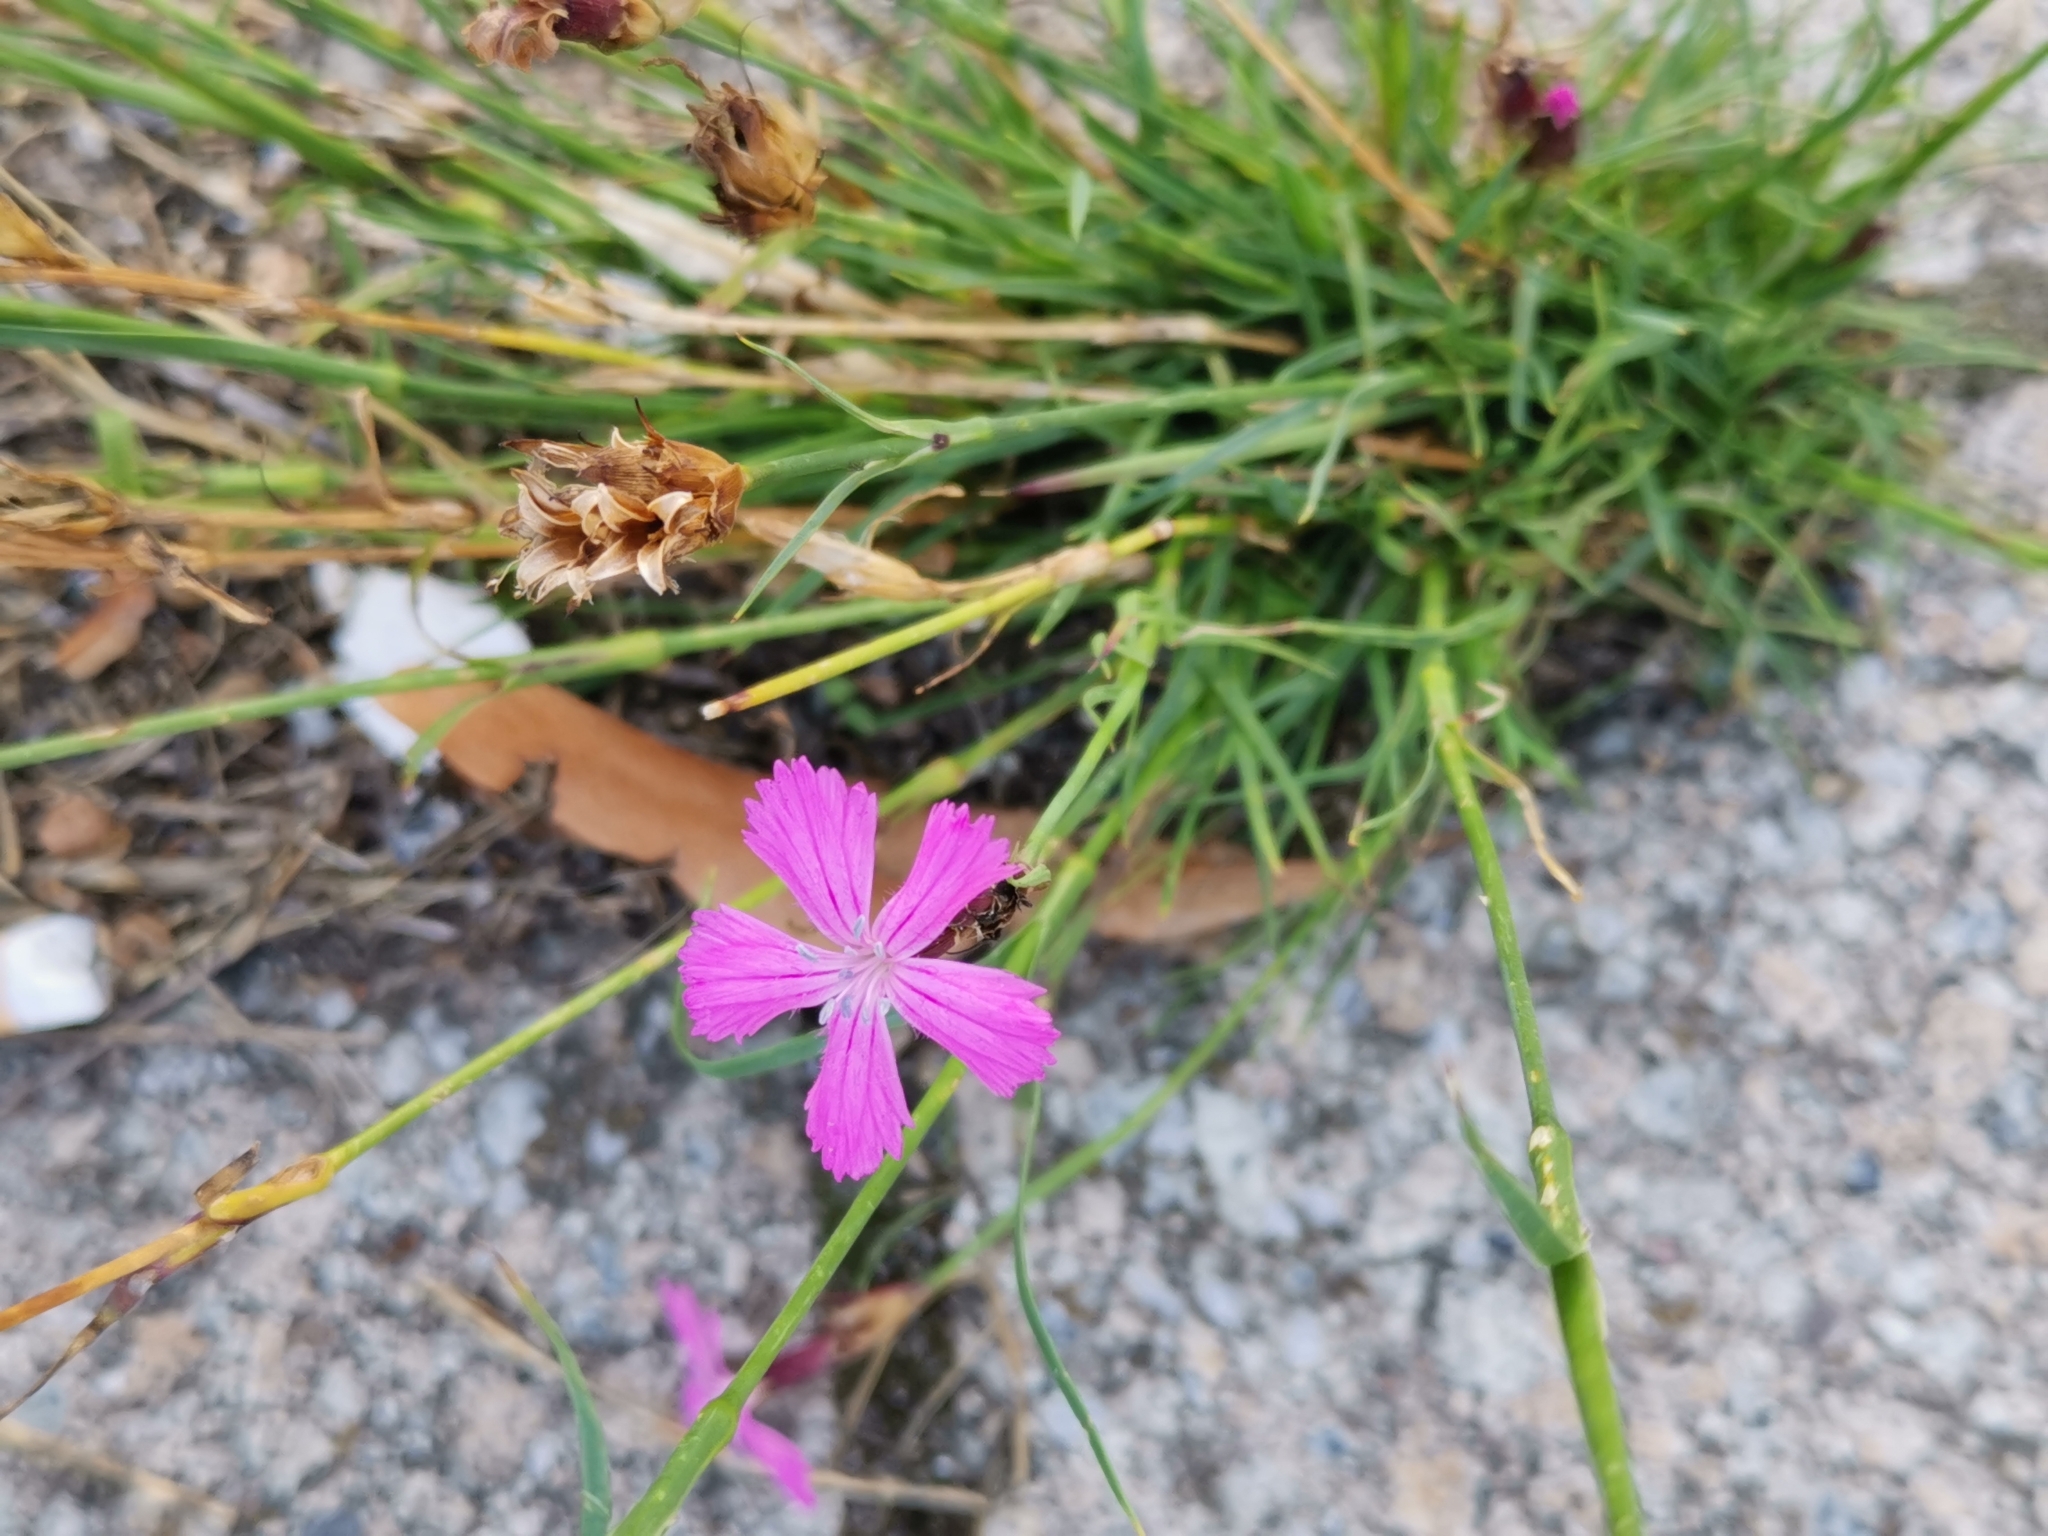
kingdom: Plantae
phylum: Tracheophyta
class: Magnoliopsida
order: Caryophyllales
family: Caryophyllaceae
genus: Dianthus
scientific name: Dianthus carthusianorum
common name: Carthusian pink
